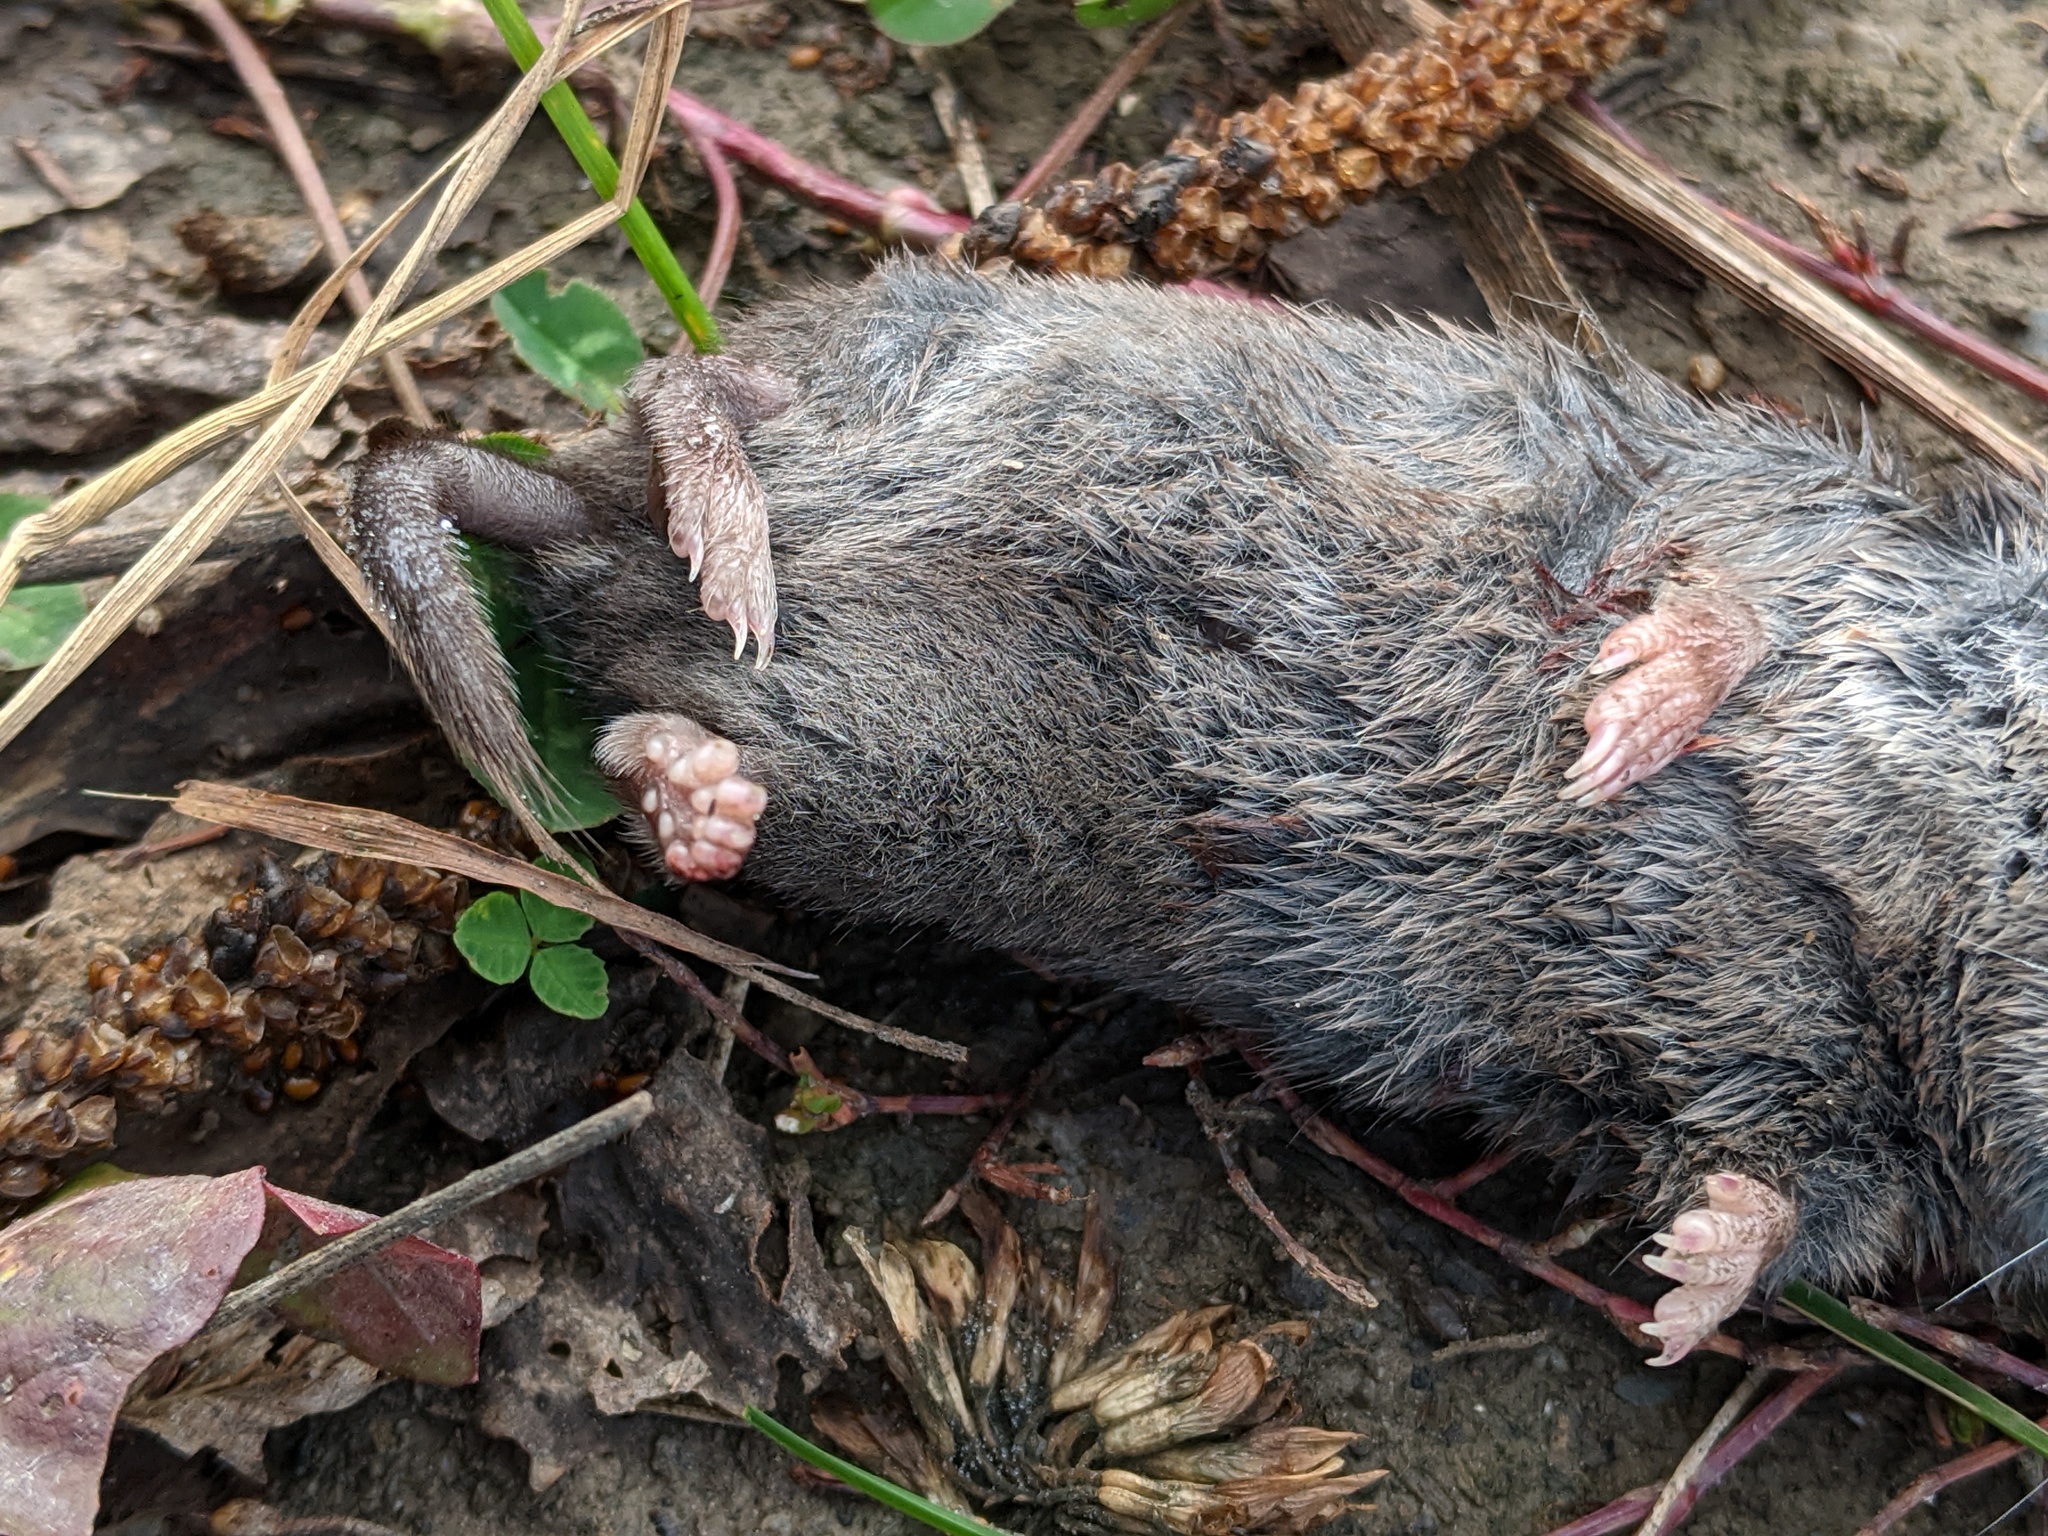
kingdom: Animalia
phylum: Chordata
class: Mammalia
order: Soricomorpha
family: Soricidae
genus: Blarina
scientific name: Blarina brevicauda
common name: Northern short-tailed shrew
